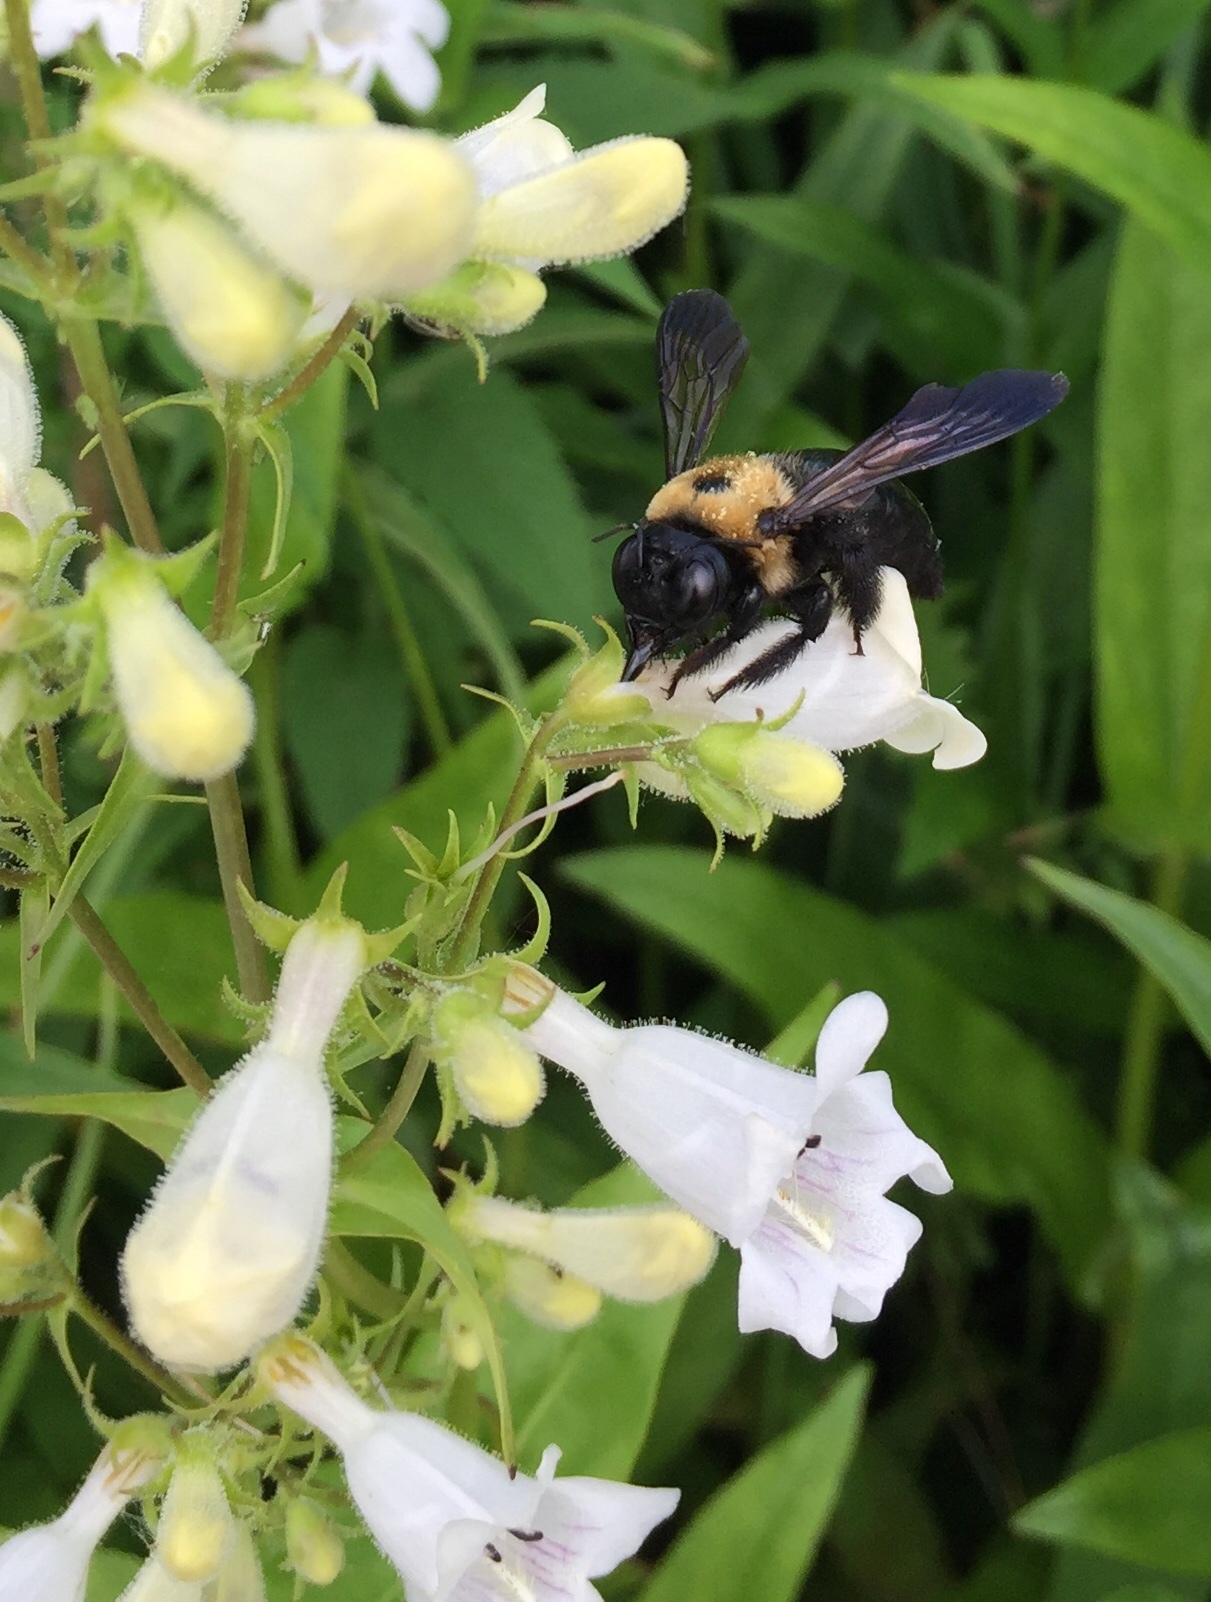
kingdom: Animalia
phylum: Arthropoda
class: Insecta
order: Hymenoptera
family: Apidae
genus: Xylocopa
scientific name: Xylocopa virginica
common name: Carpenter bee
